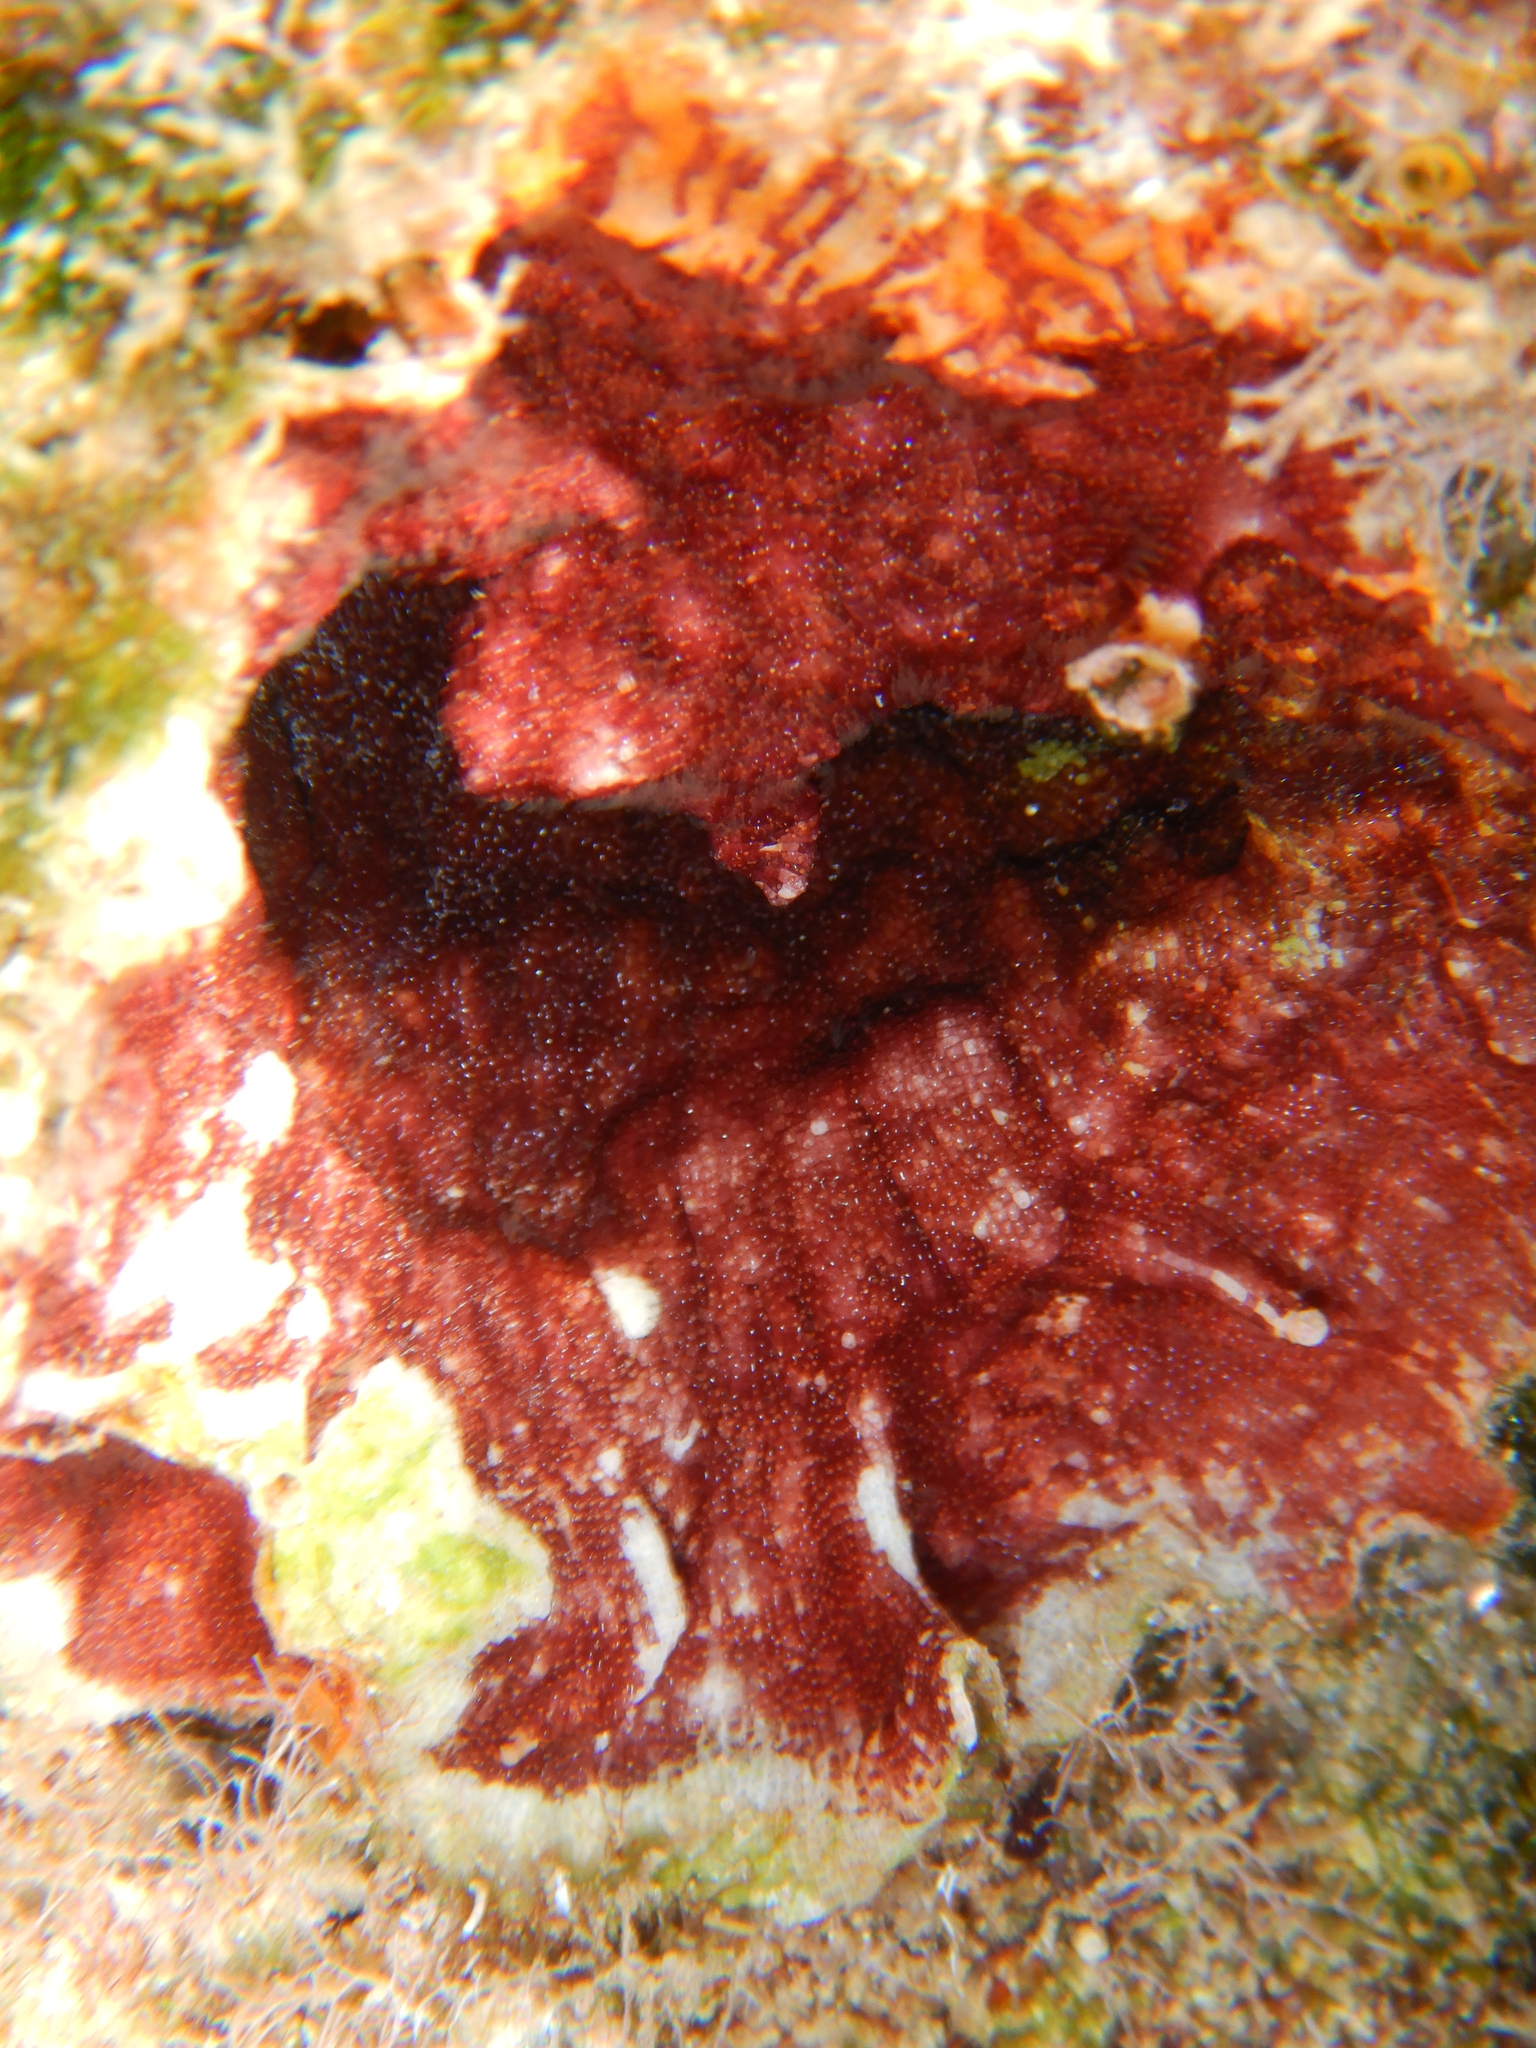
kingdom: Animalia
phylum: Bryozoa
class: Gymnolaemata
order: Cheilostomatida
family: Schizoporellidae
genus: Schizobrachiella
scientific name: Schizobrachiella sanguinea
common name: Blood-red encrusting bryozoan
